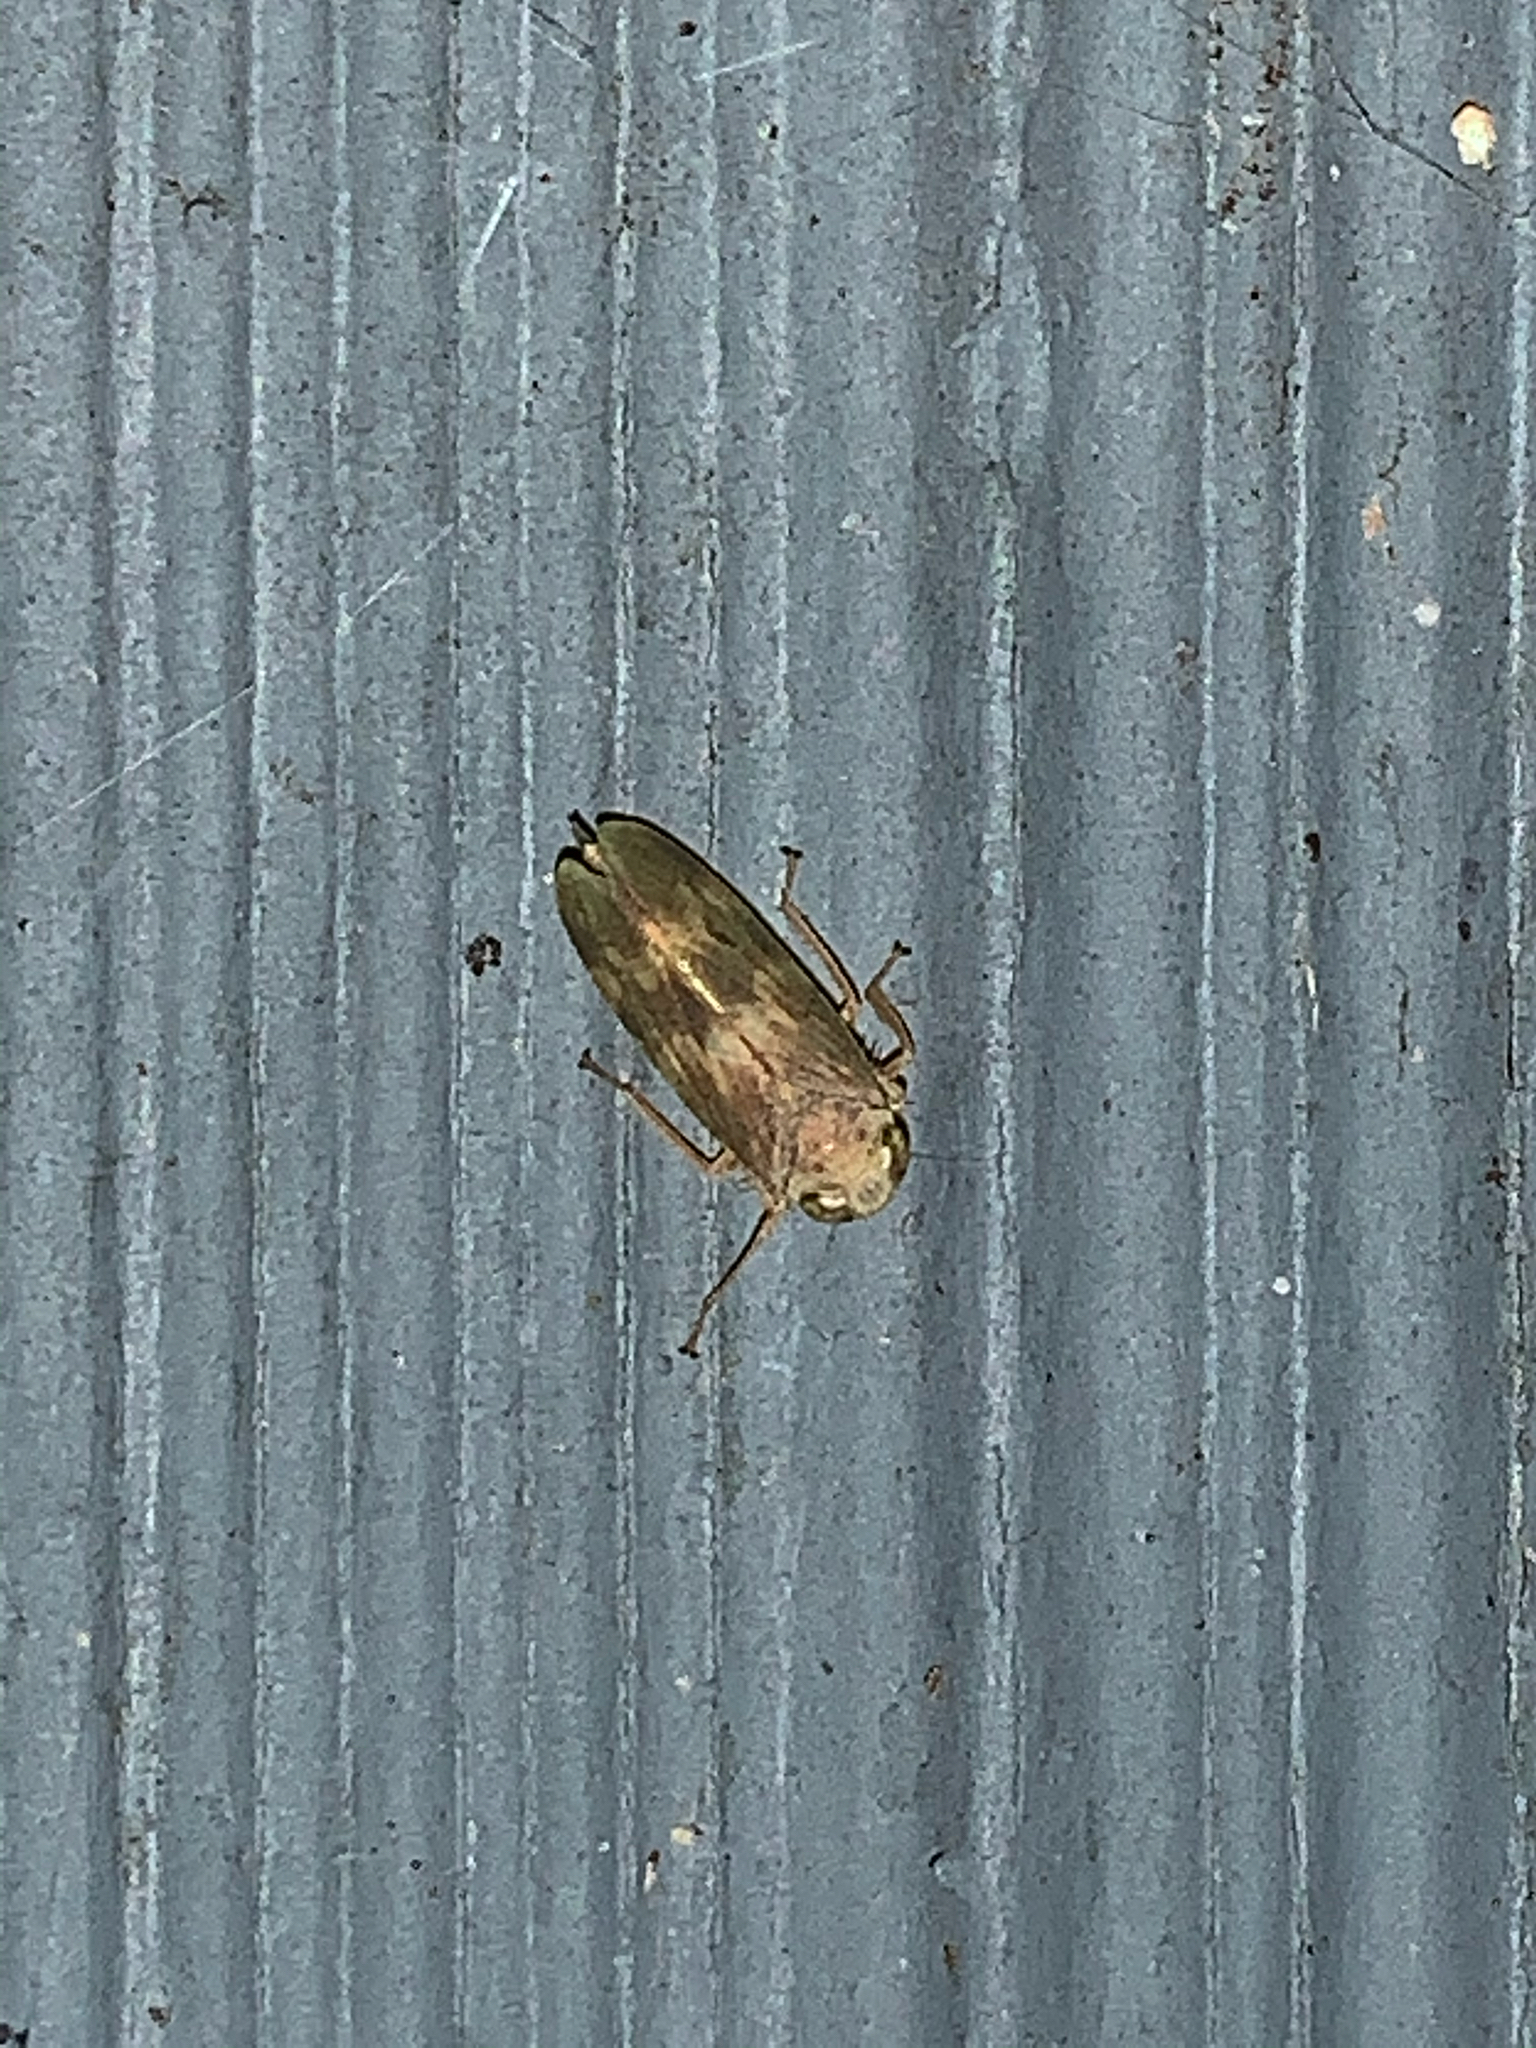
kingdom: Animalia
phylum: Arthropoda
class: Insecta
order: Hemiptera
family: Cicadellidae
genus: Jikradia
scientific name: Jikradia olitoria
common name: Coppery leafhopper
